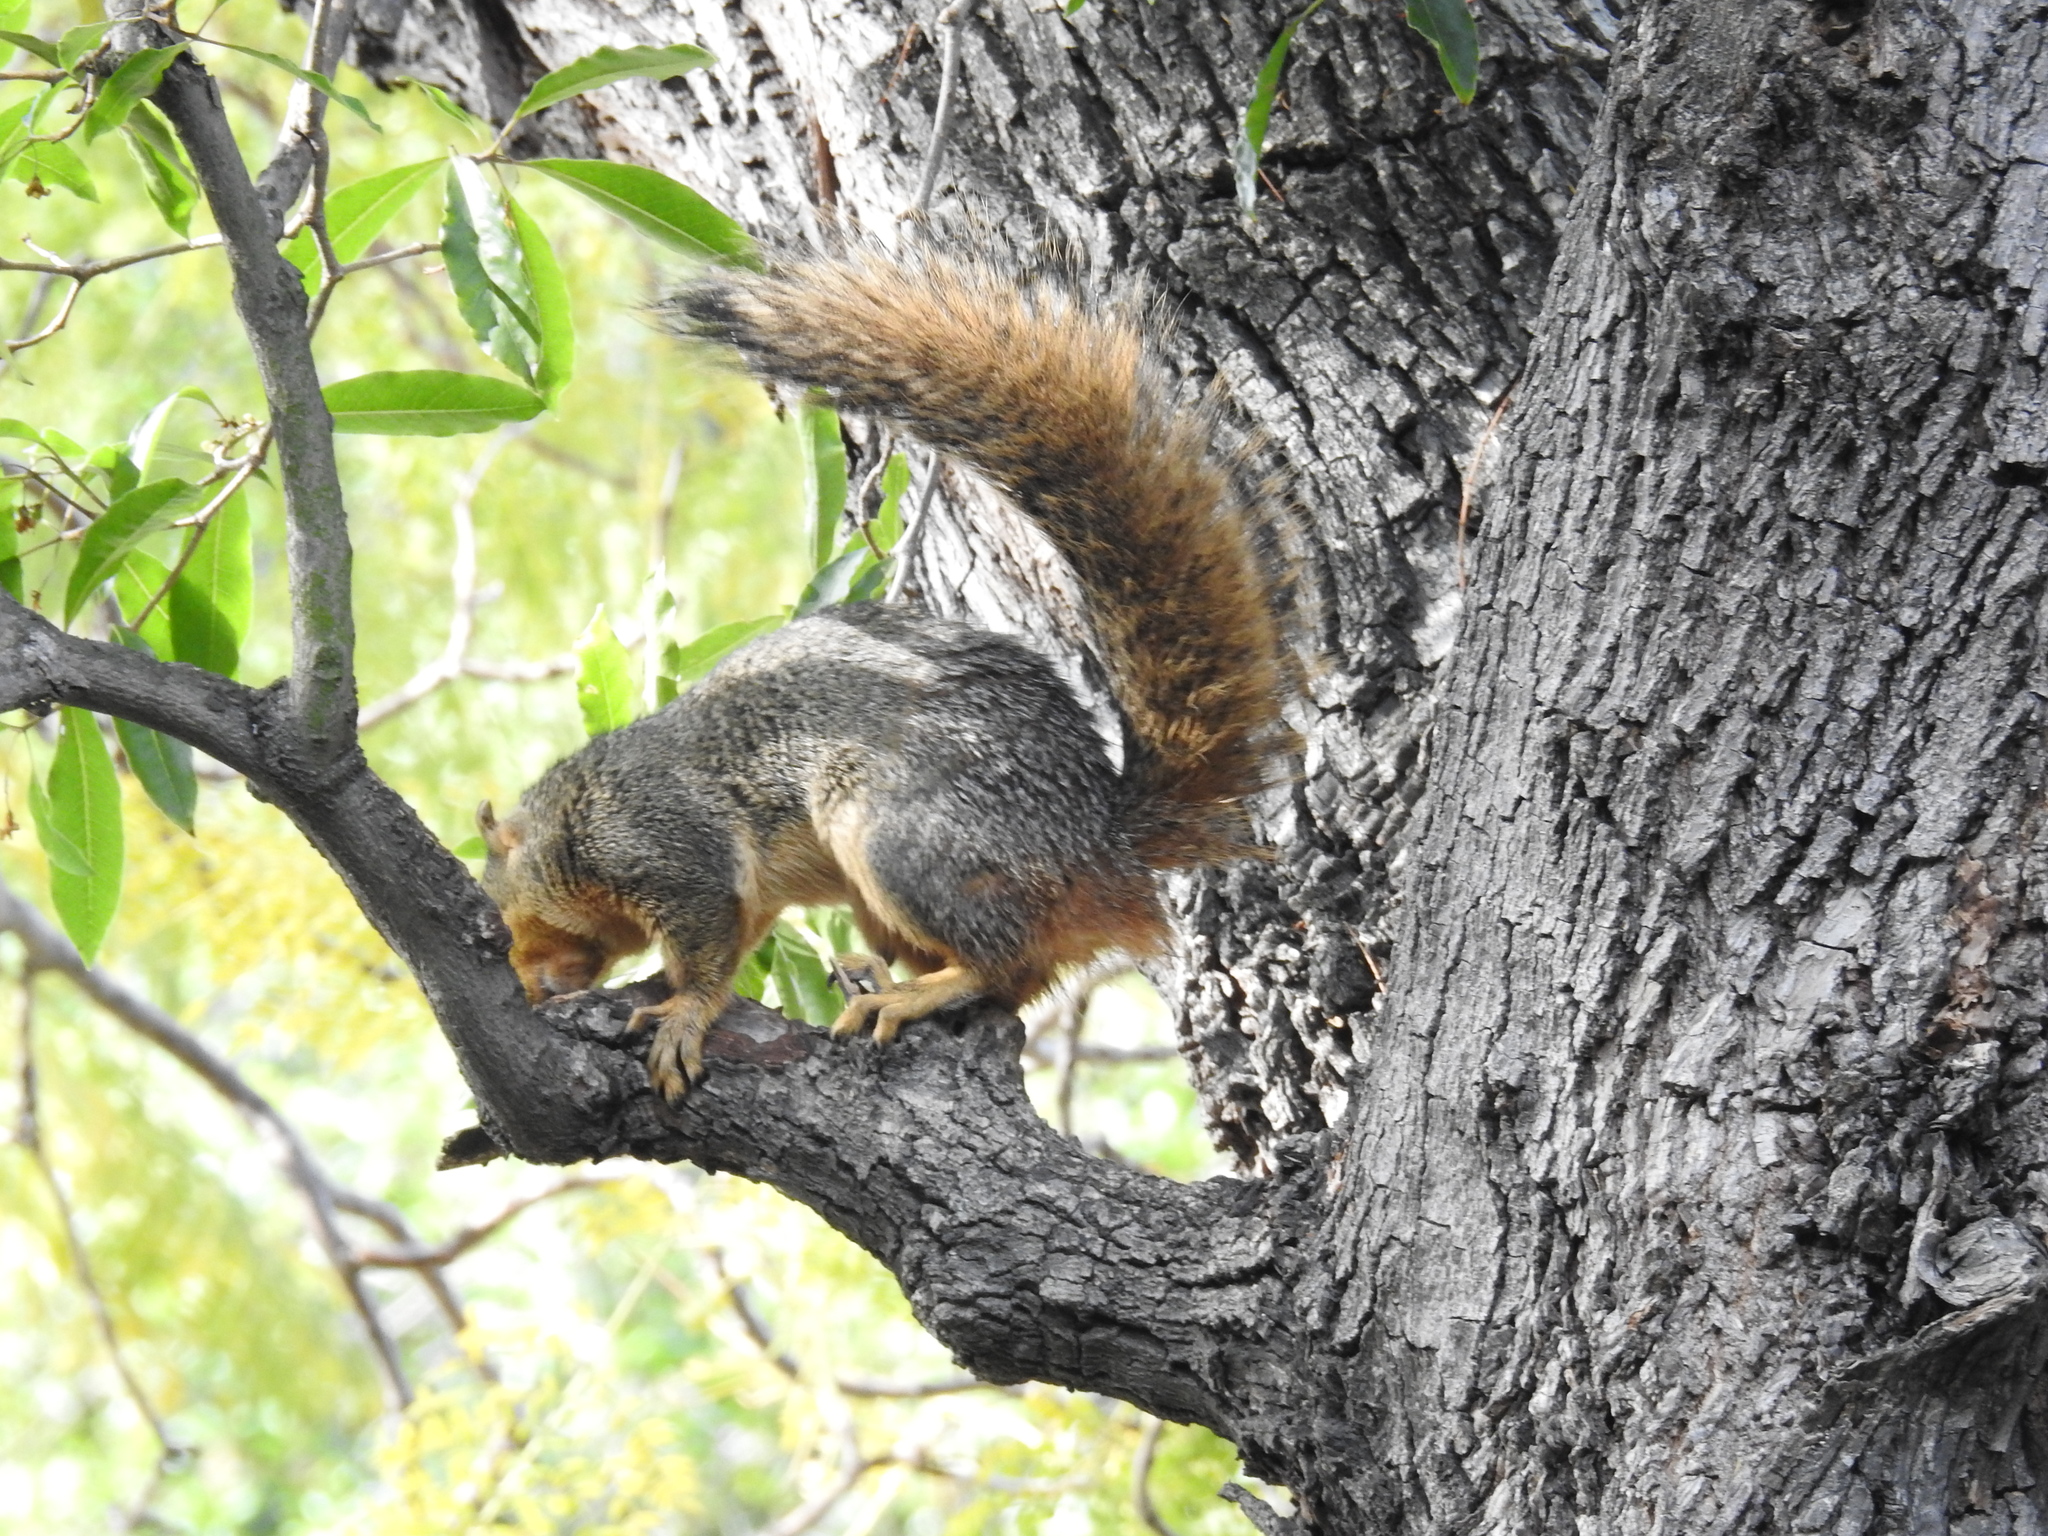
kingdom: Animalia
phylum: Chordata
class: Mammalia
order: Rodentia
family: Sciuridae
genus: Sciurus
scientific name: Sciurus niger
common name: Fox squirrel
